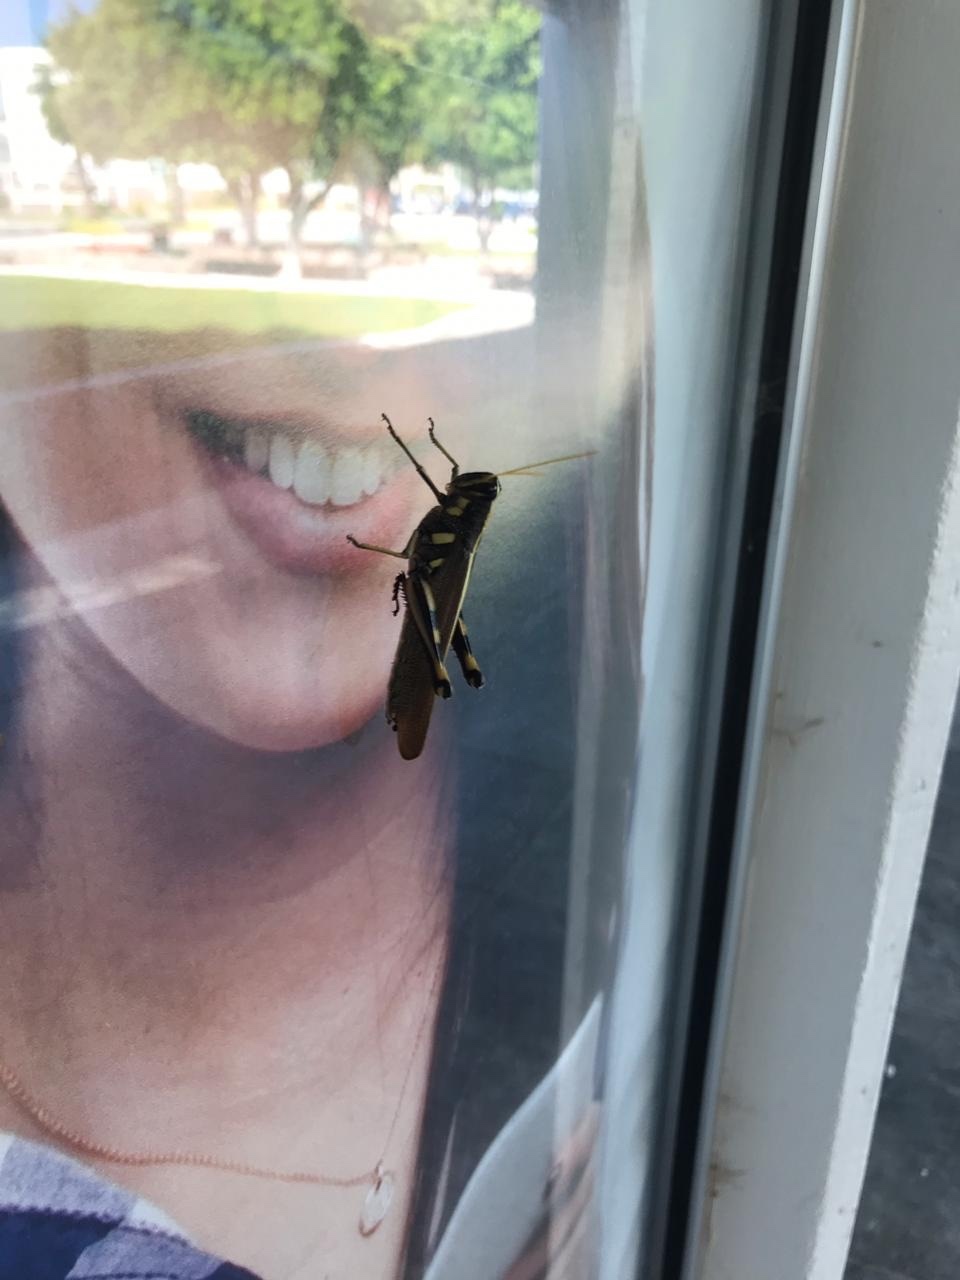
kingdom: Animalia
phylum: Arthropoda
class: Insecta
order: Orthoptera
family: Acrididae
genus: Schistocerca
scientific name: Schistocerca albolineata
